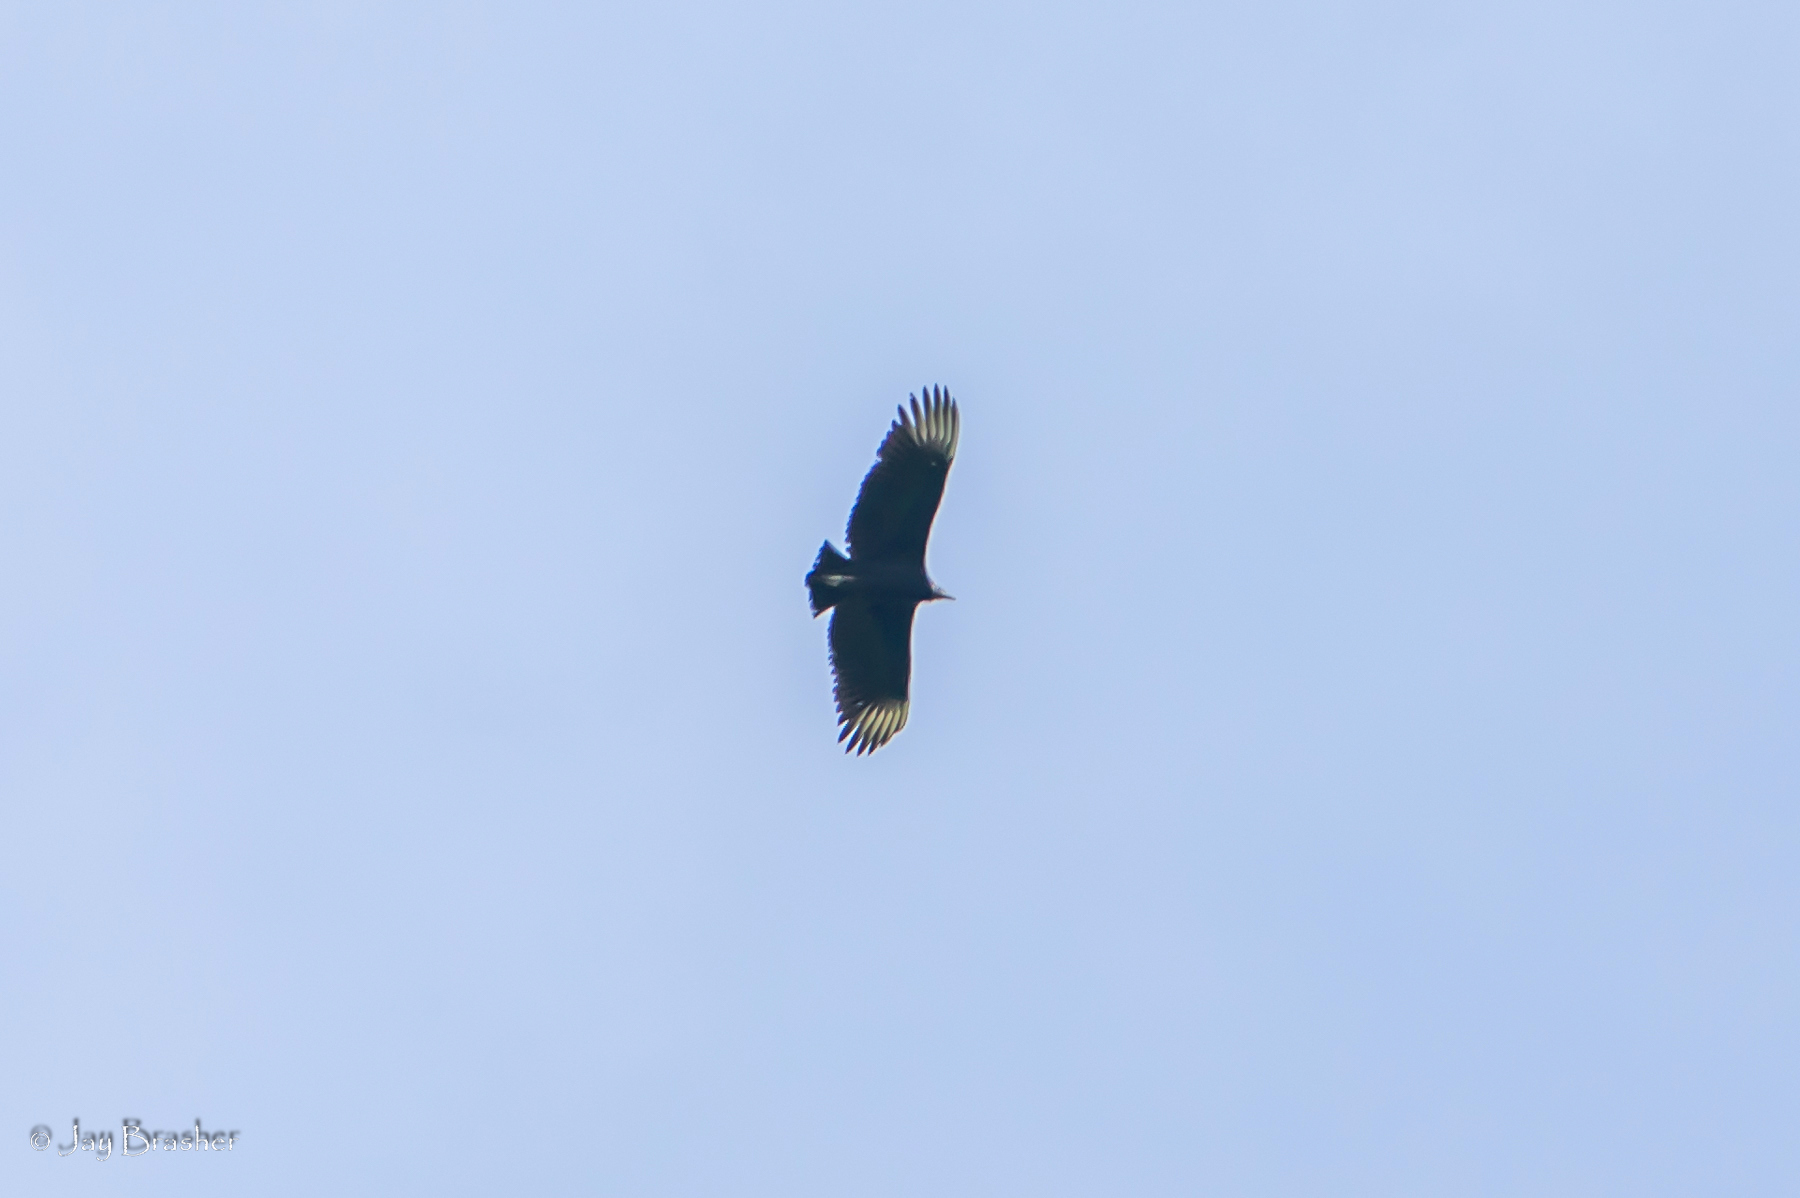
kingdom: Animalia
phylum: Chordata
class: Aves
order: Accipitriformes
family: Cathartidae
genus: Coragyps
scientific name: Coragyps atratus
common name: Black vulture
